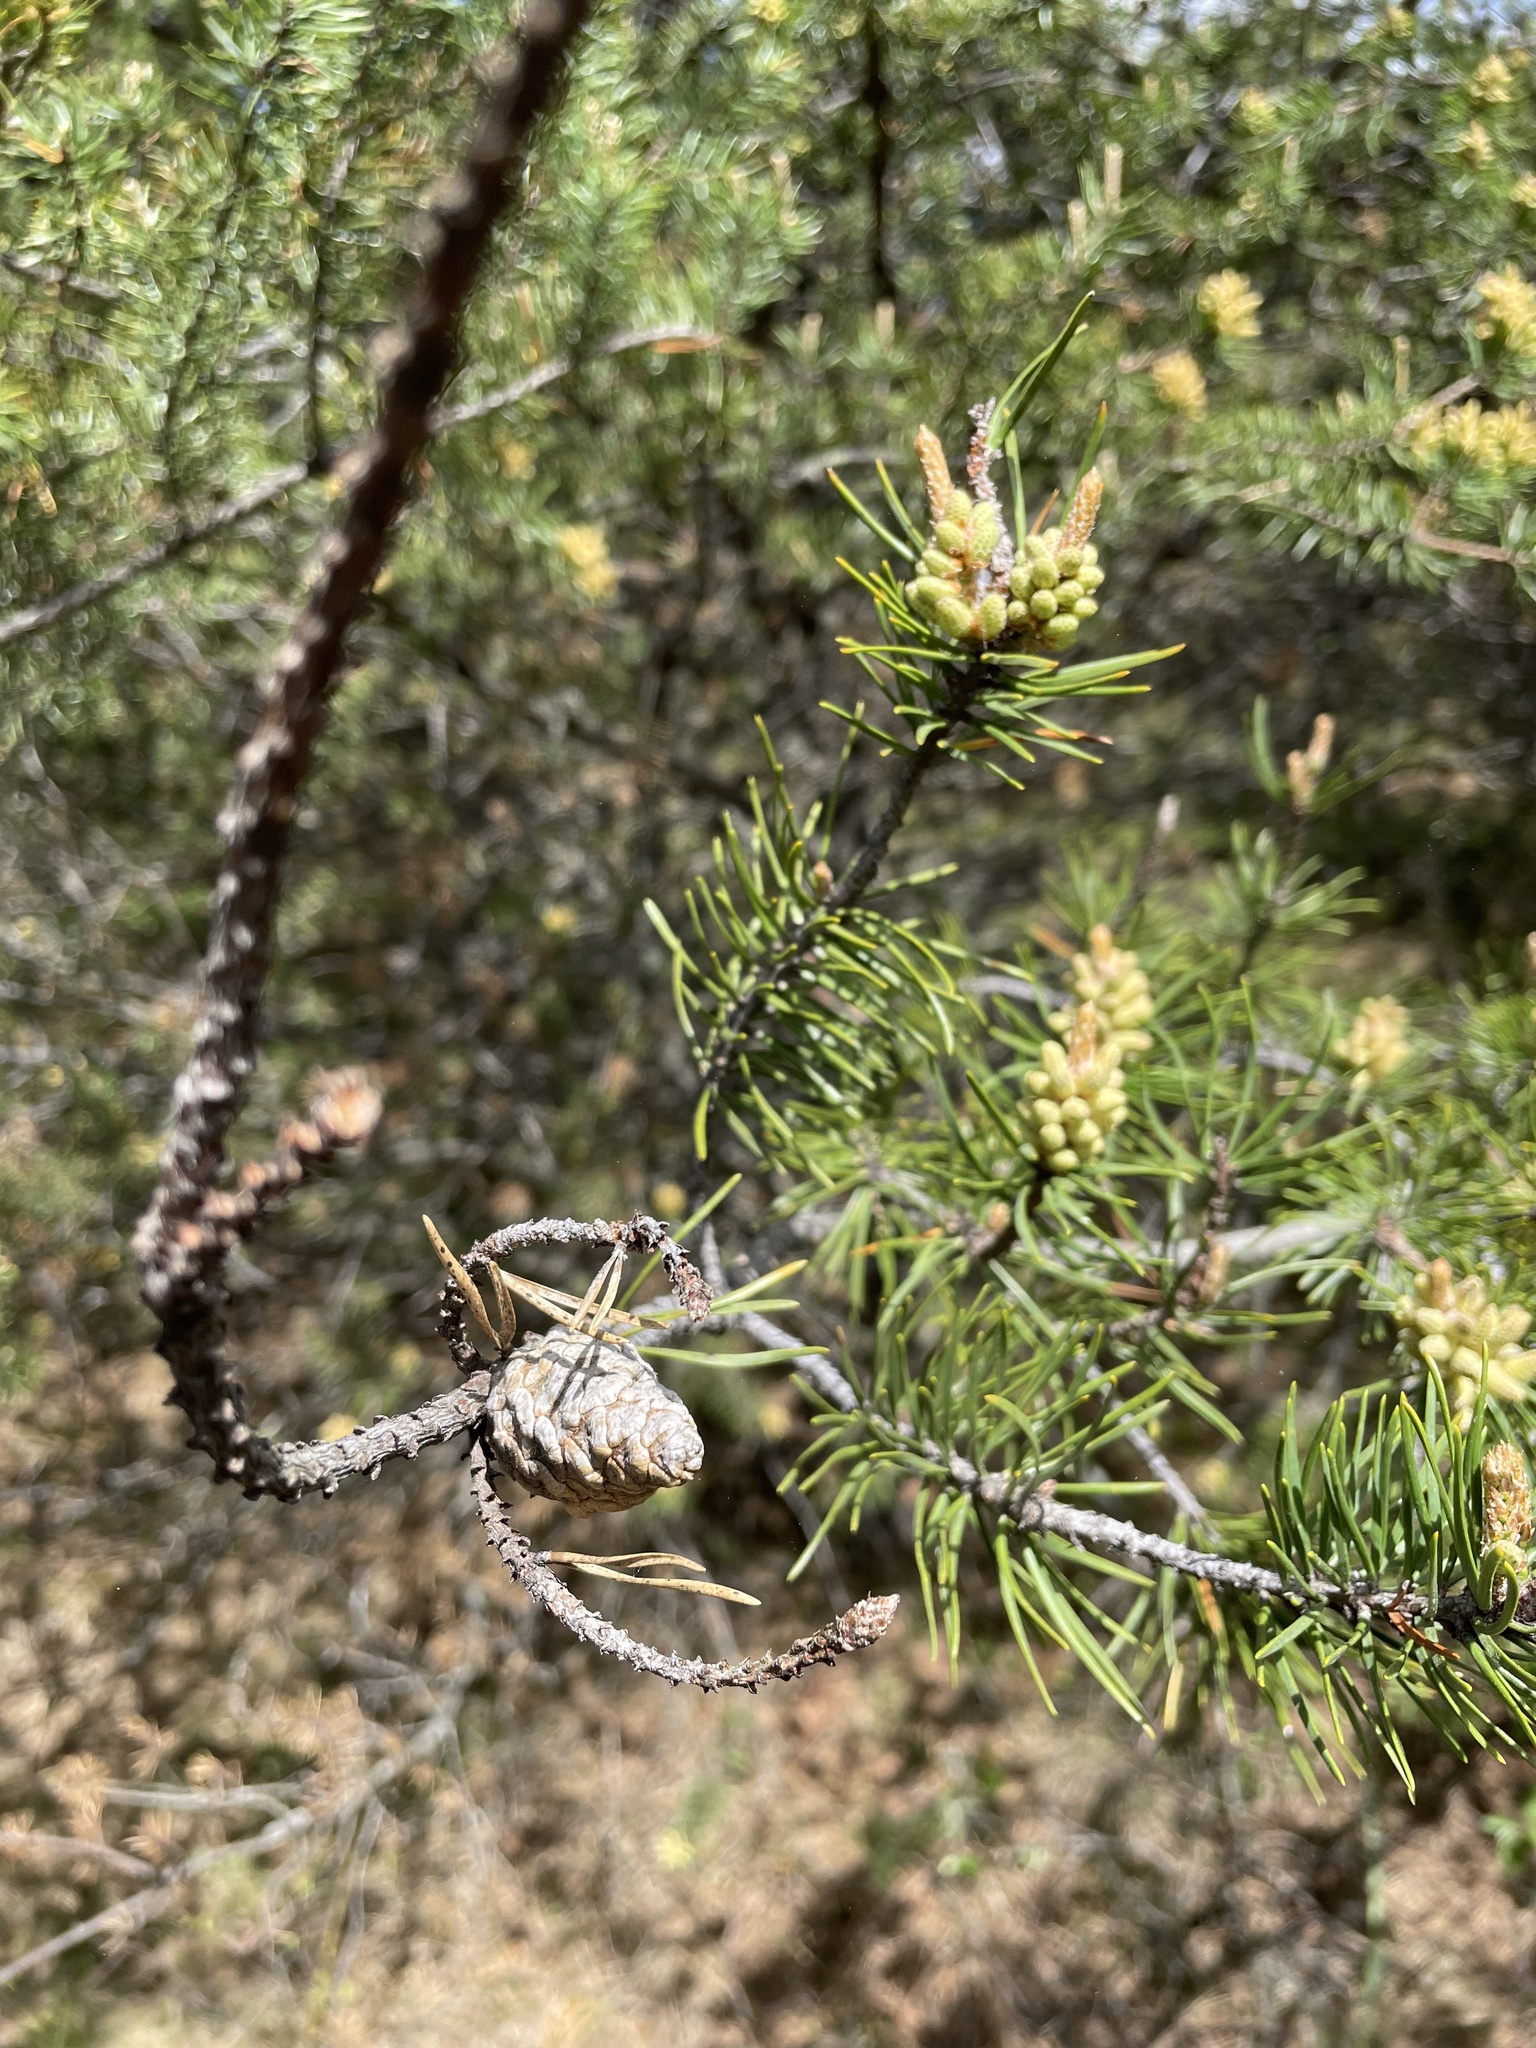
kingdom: Plantae
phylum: Tracheophyta
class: Pinopsida
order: Pinales
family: Pinaceae
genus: Pinus
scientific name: Pinus banksiana
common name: Jack pine
